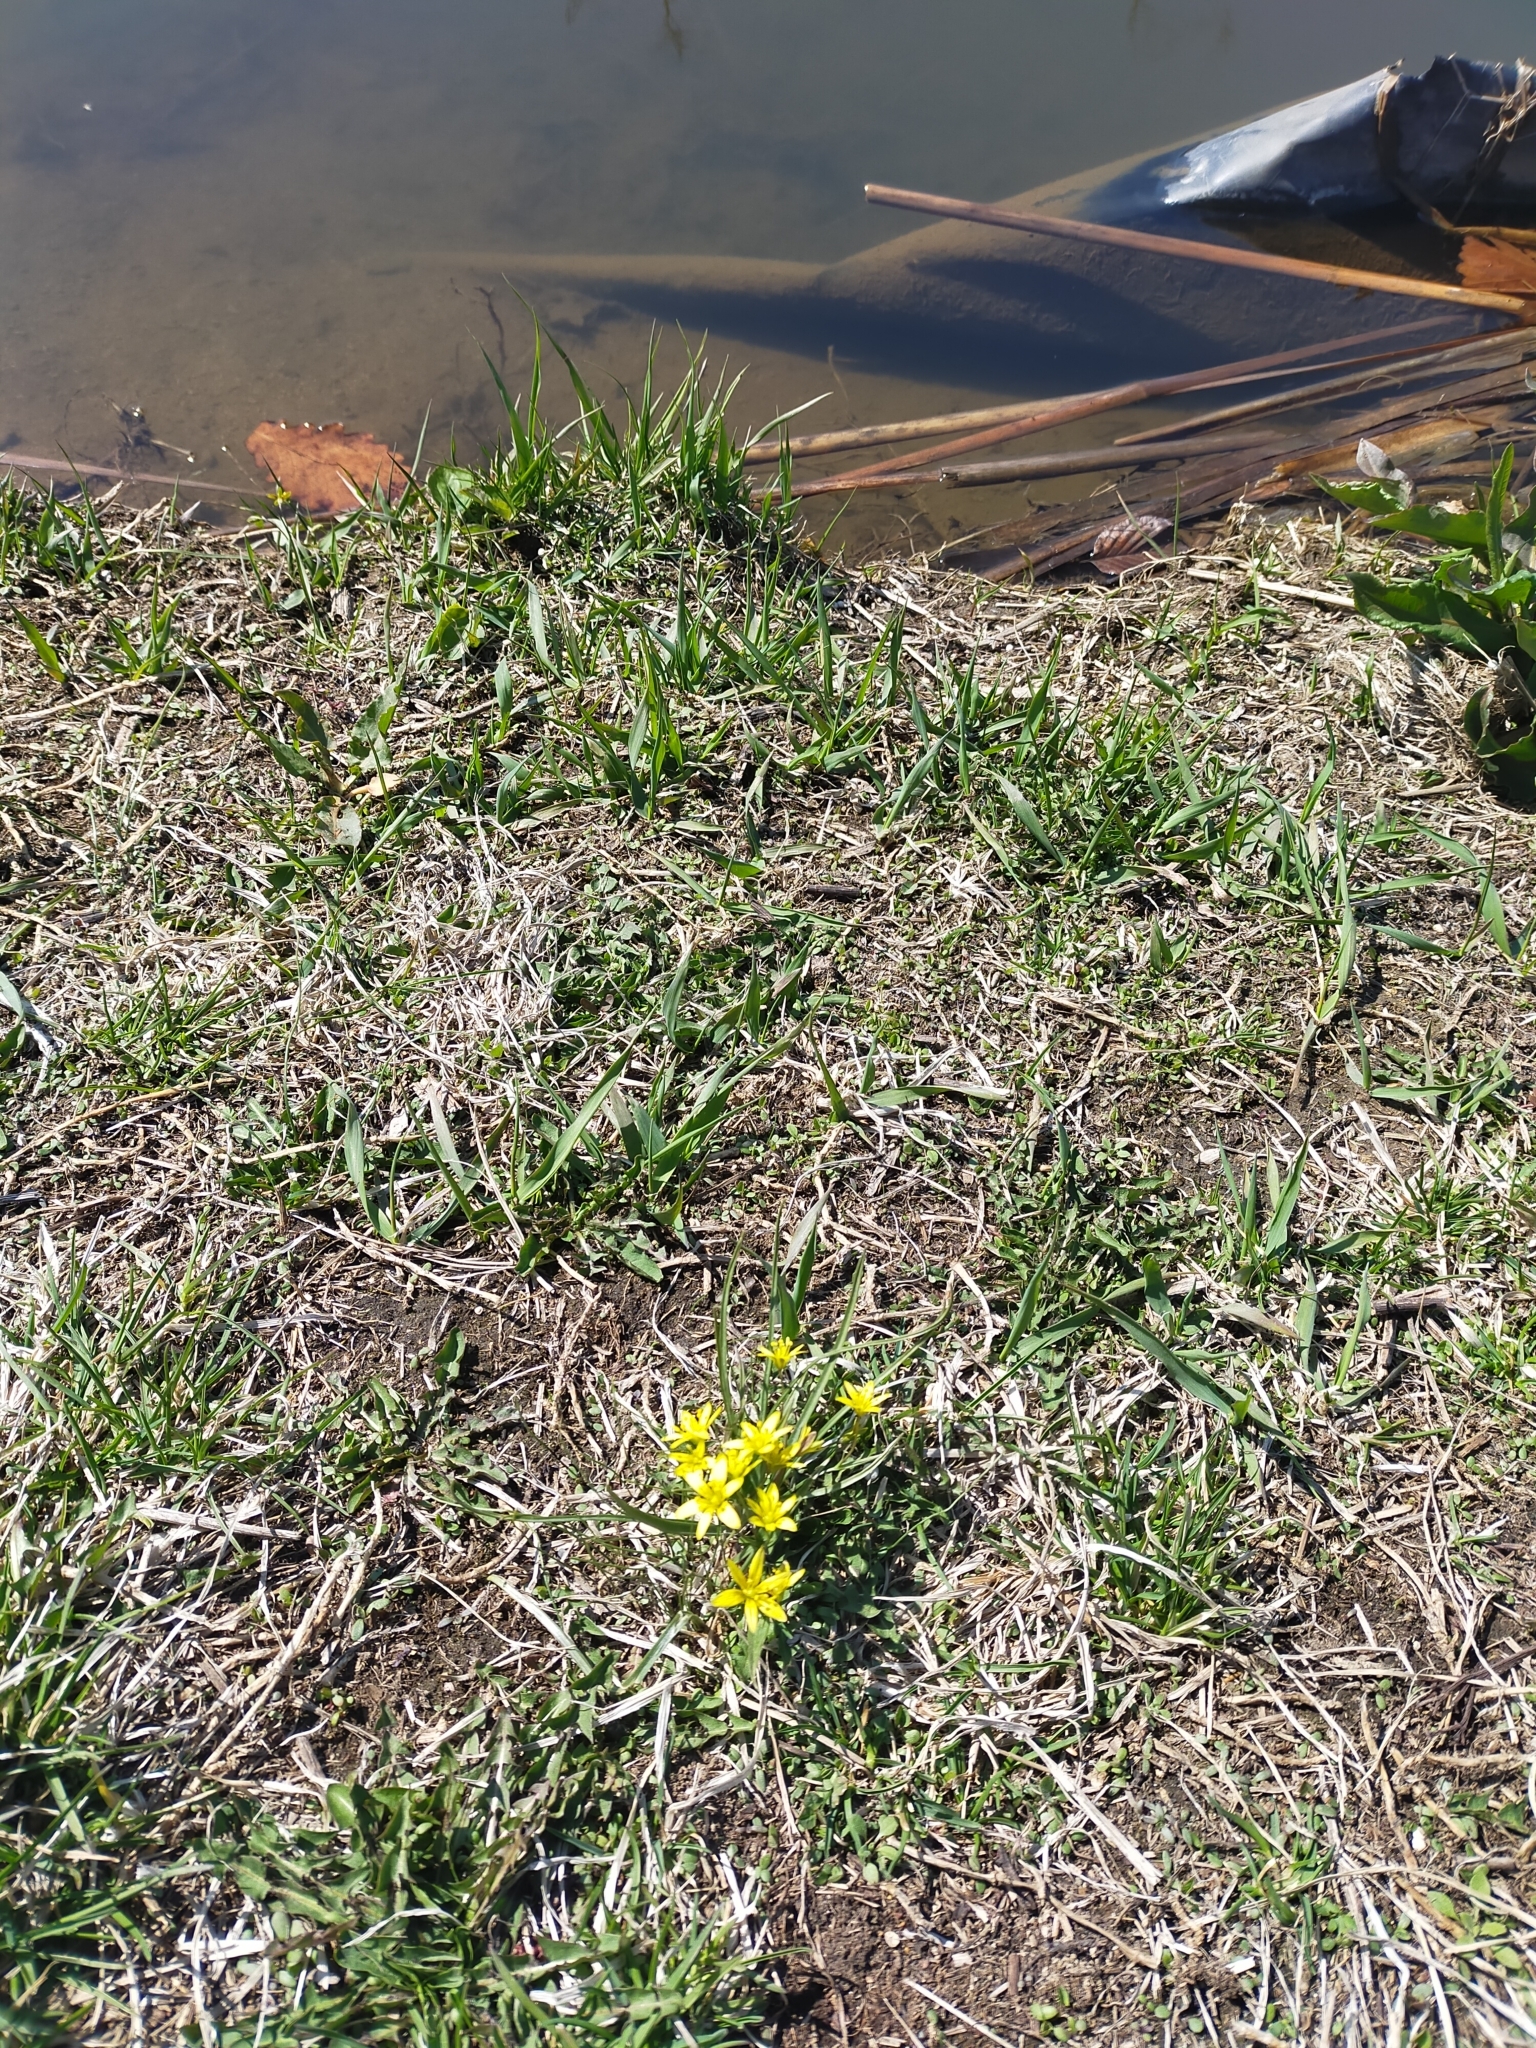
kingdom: Plantae
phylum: Tracheophyta
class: Liliopsida
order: Liliales
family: Liliaceae
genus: Gagea
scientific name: Gagea nakaiana
